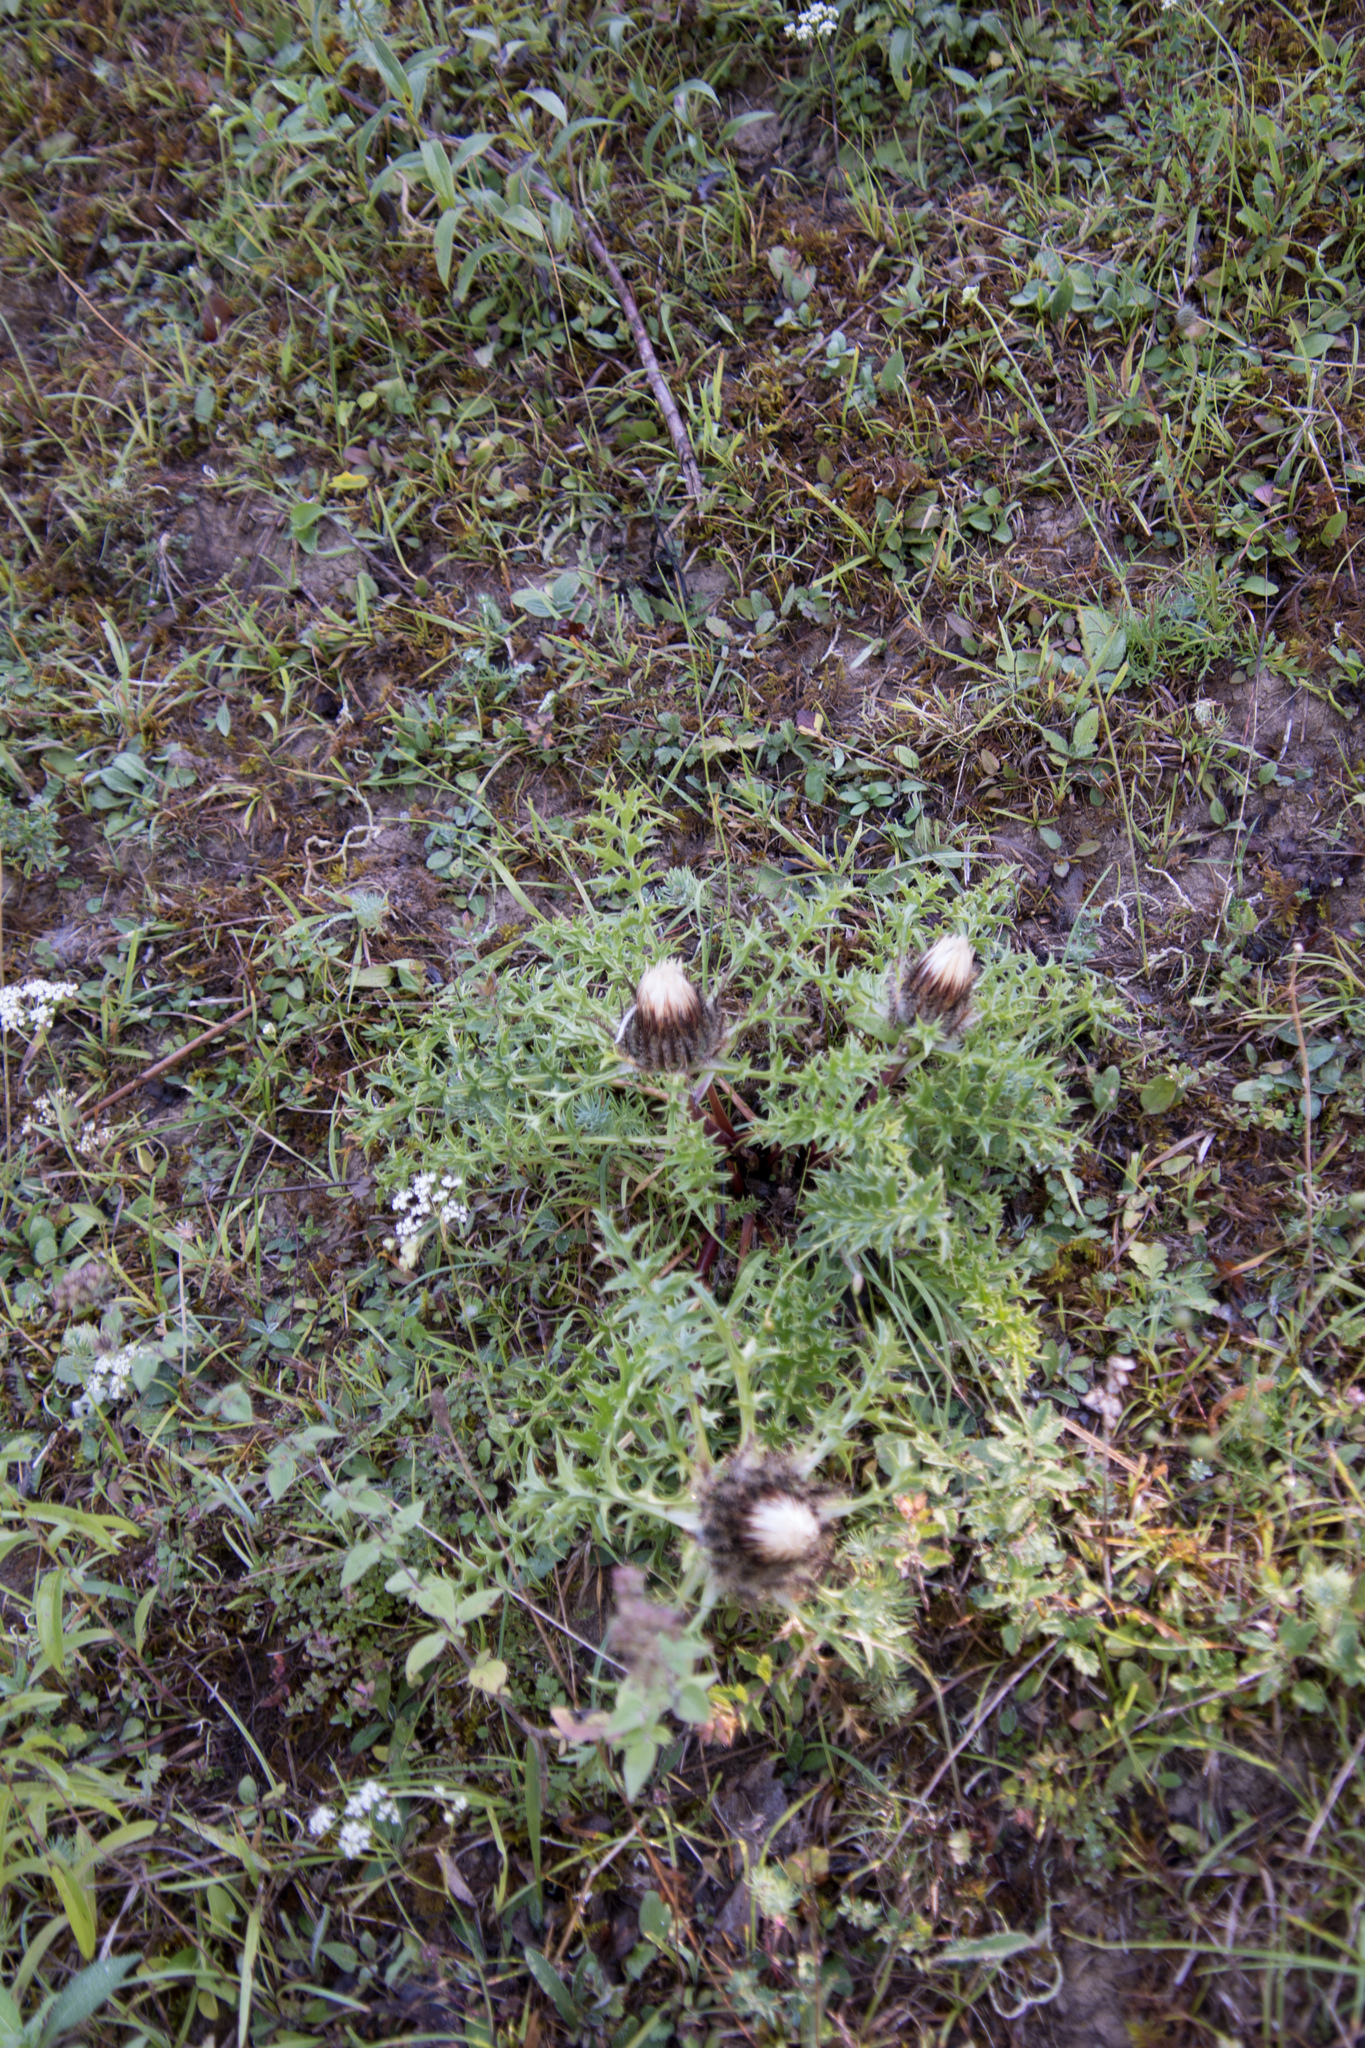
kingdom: Plantae
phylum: Tracheophyta
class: Magnoliopsida
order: Asterales
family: Asteraceae
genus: Carlina
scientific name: Carlina acaulis
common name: Stemless carline thistle
